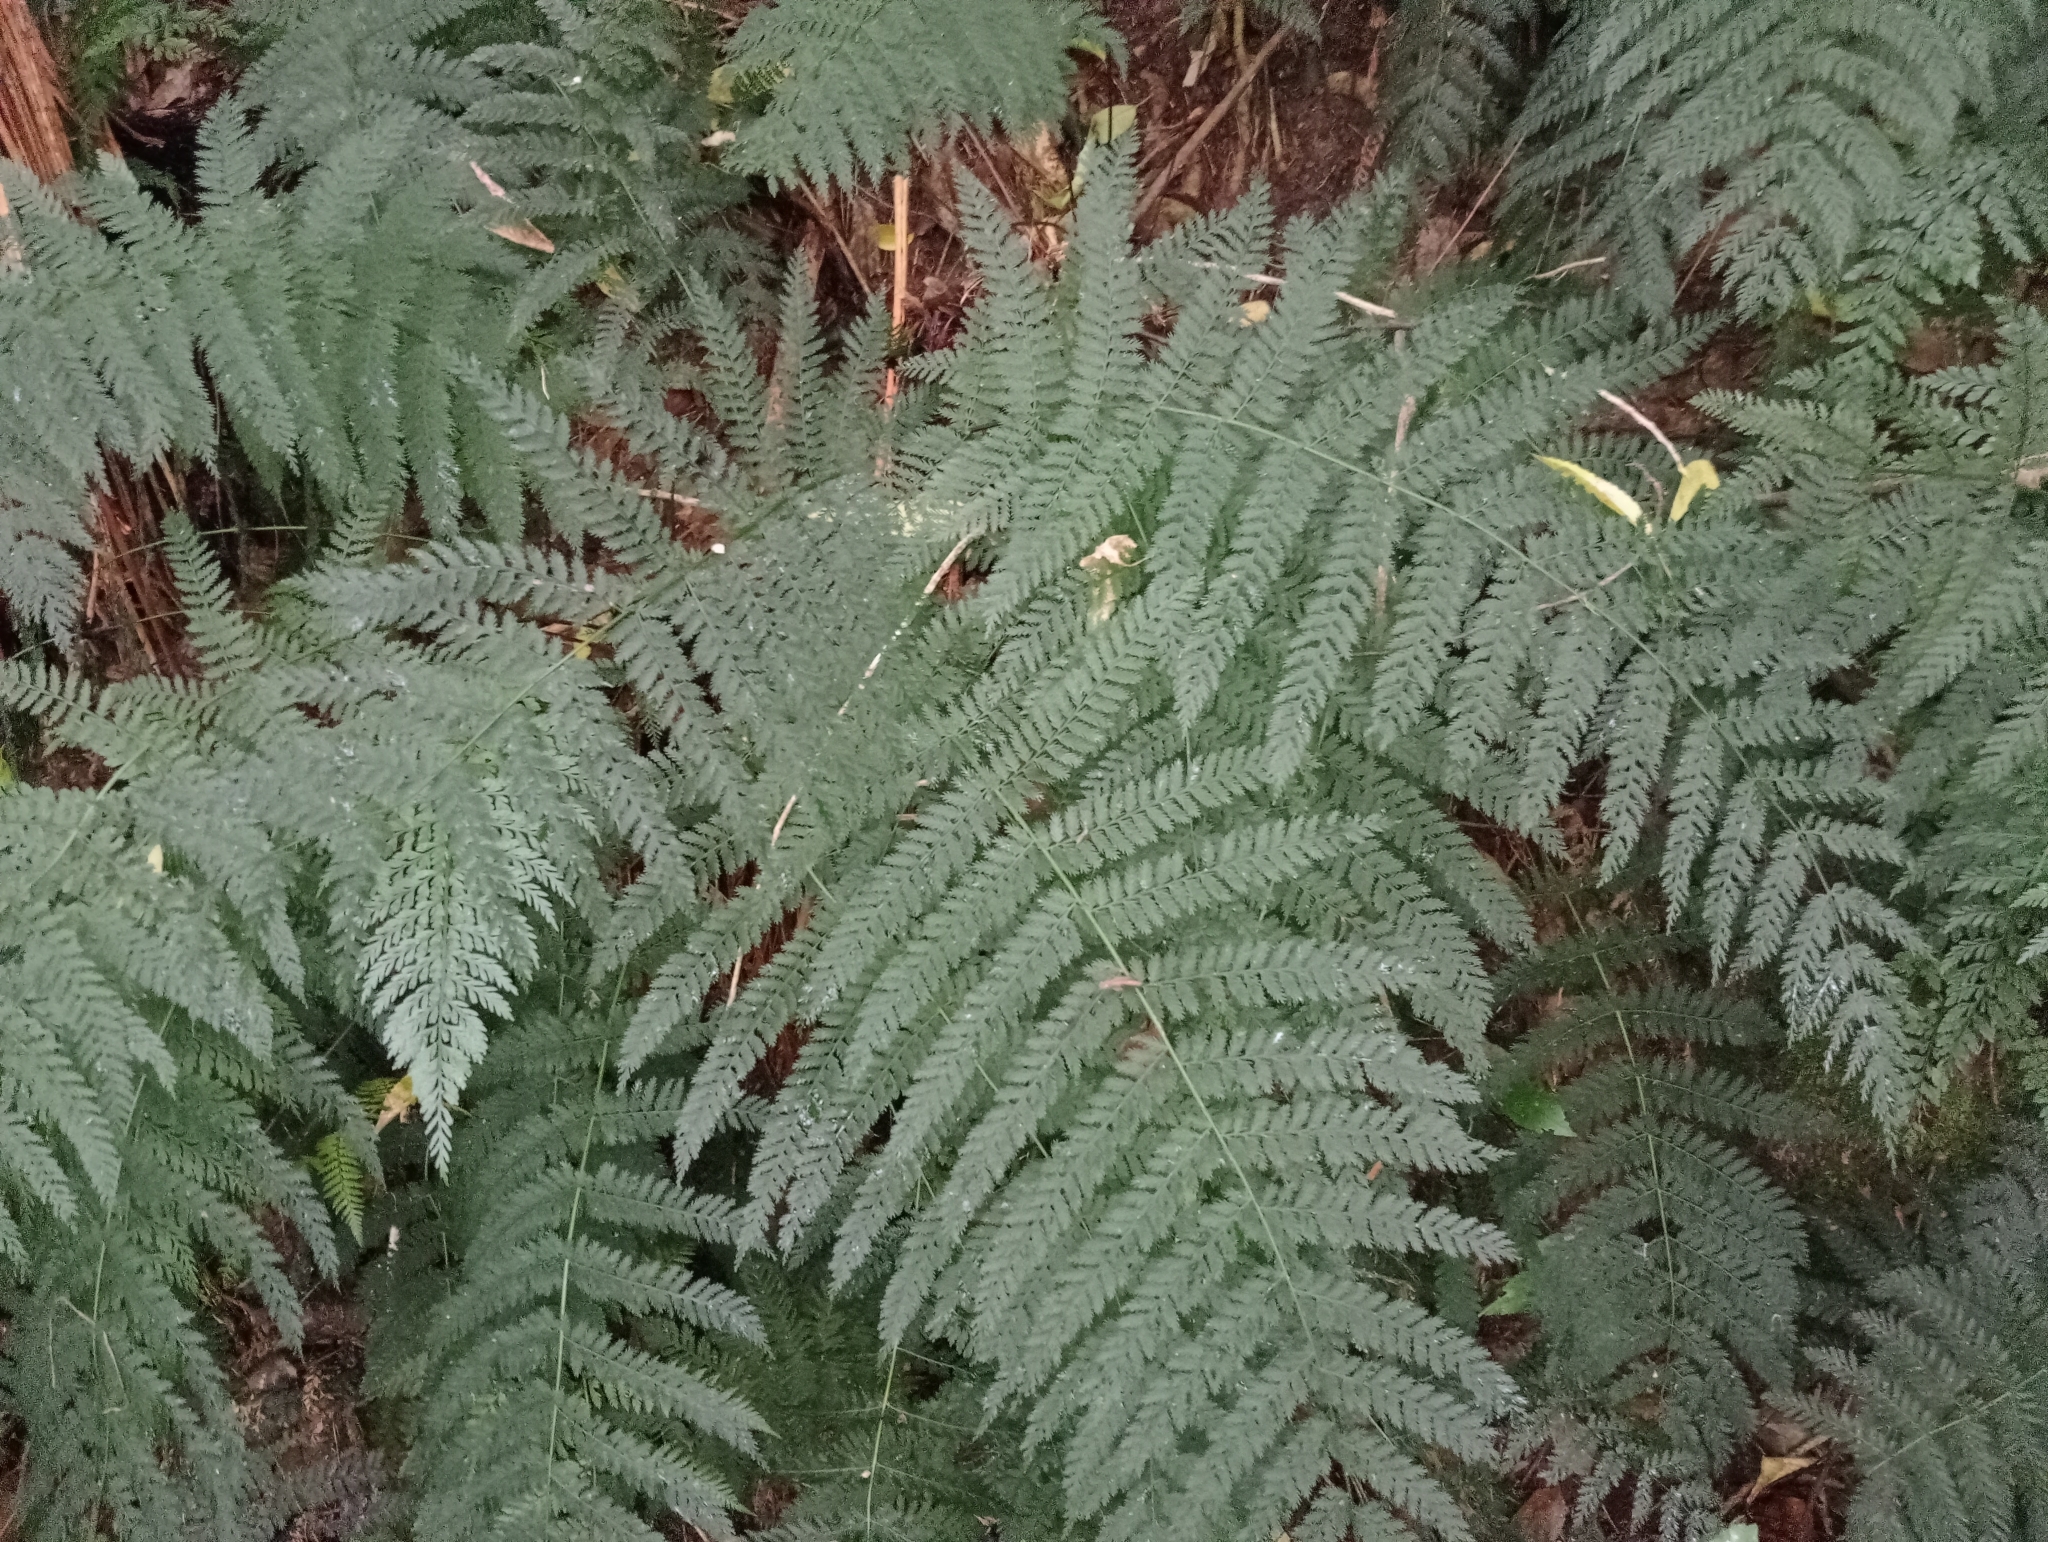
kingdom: Plantae
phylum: Tracheophyta
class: Polypodiopsida
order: Osmundales
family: Osmundaceae
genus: Leptopteris
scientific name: Leptopteris hymenophylloides
